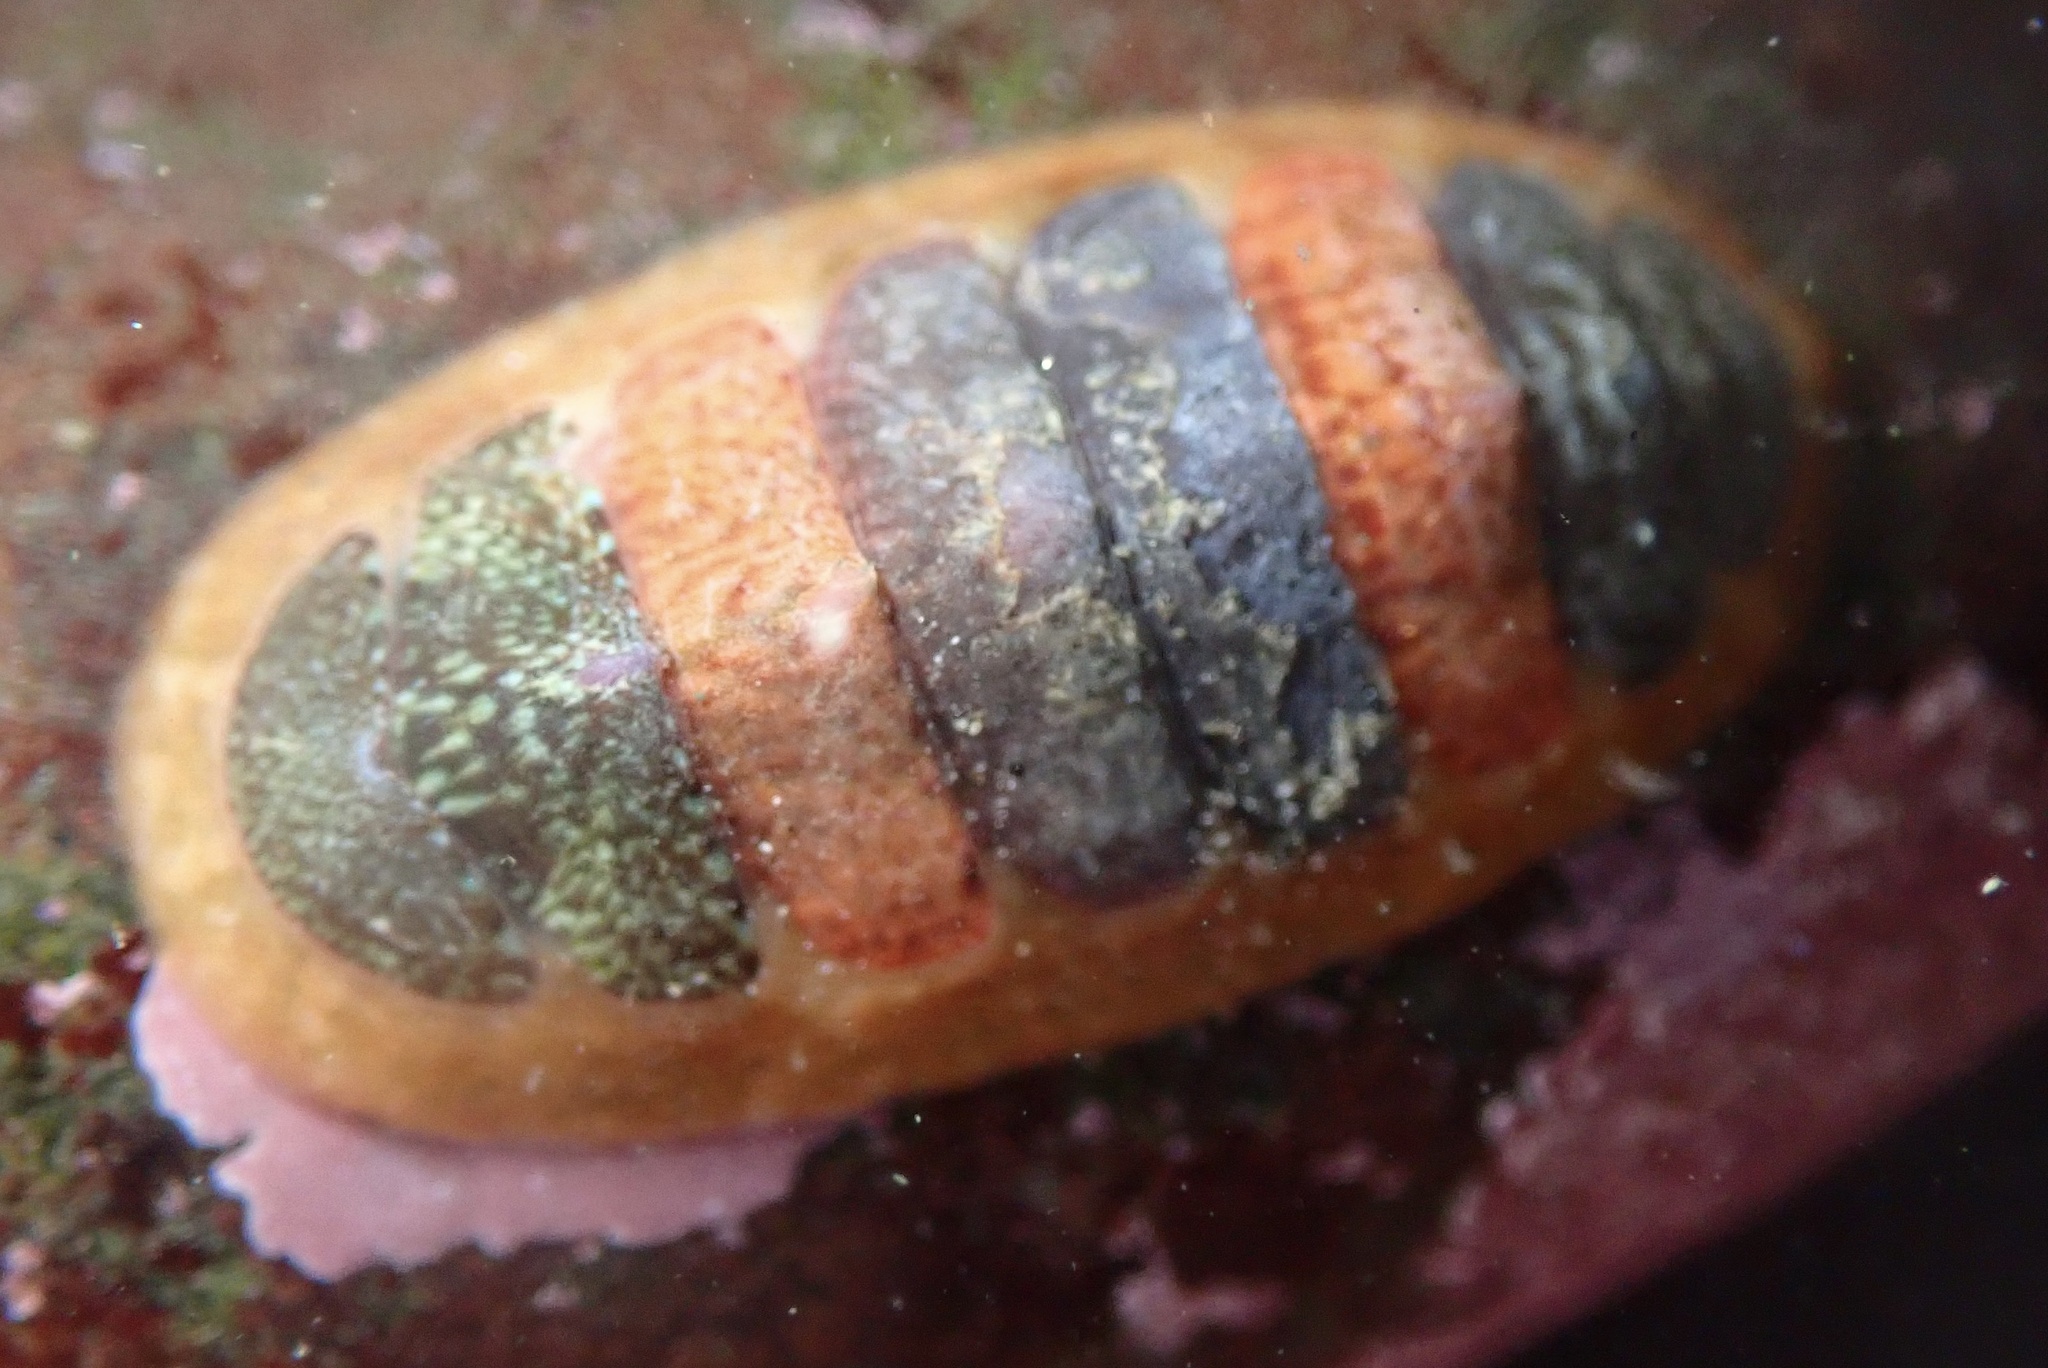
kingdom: Animalia
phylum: Mollusca
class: Polyplacophora
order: Chitonida
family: Mopaliidae
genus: Dendrochiton
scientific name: Dendrochiton flectens
